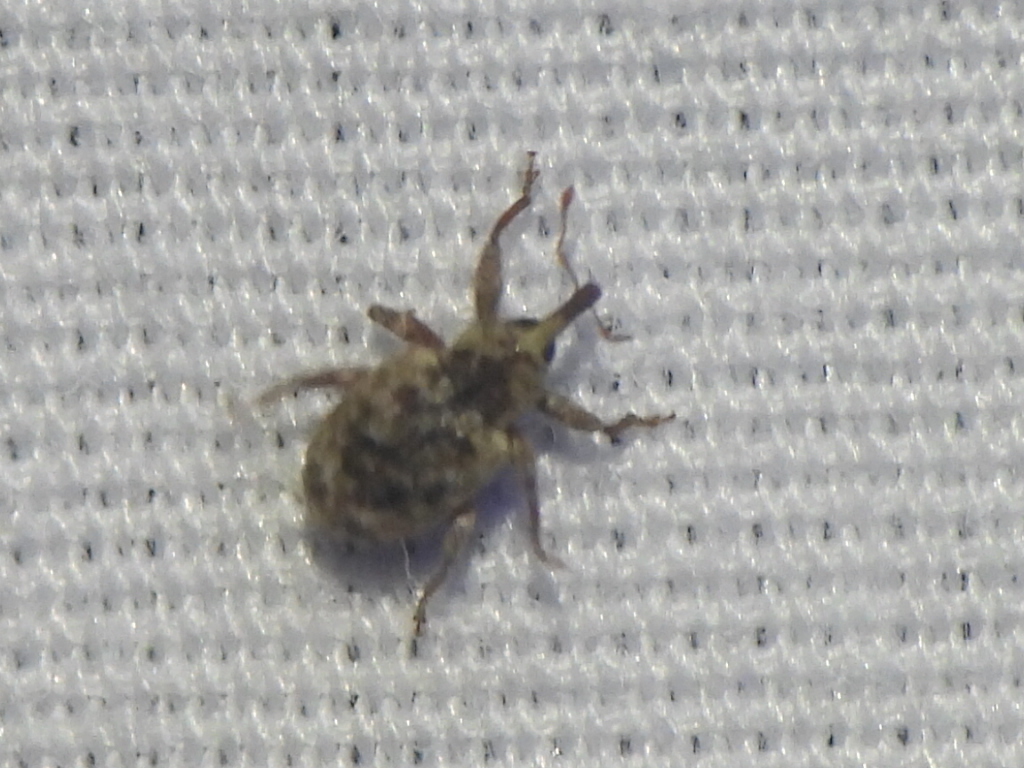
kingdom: Animalia
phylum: Arthropoda
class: Insecta
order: Coleoptera
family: Curculionidae
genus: Conotrachelus
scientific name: Conotrachelus recessus
